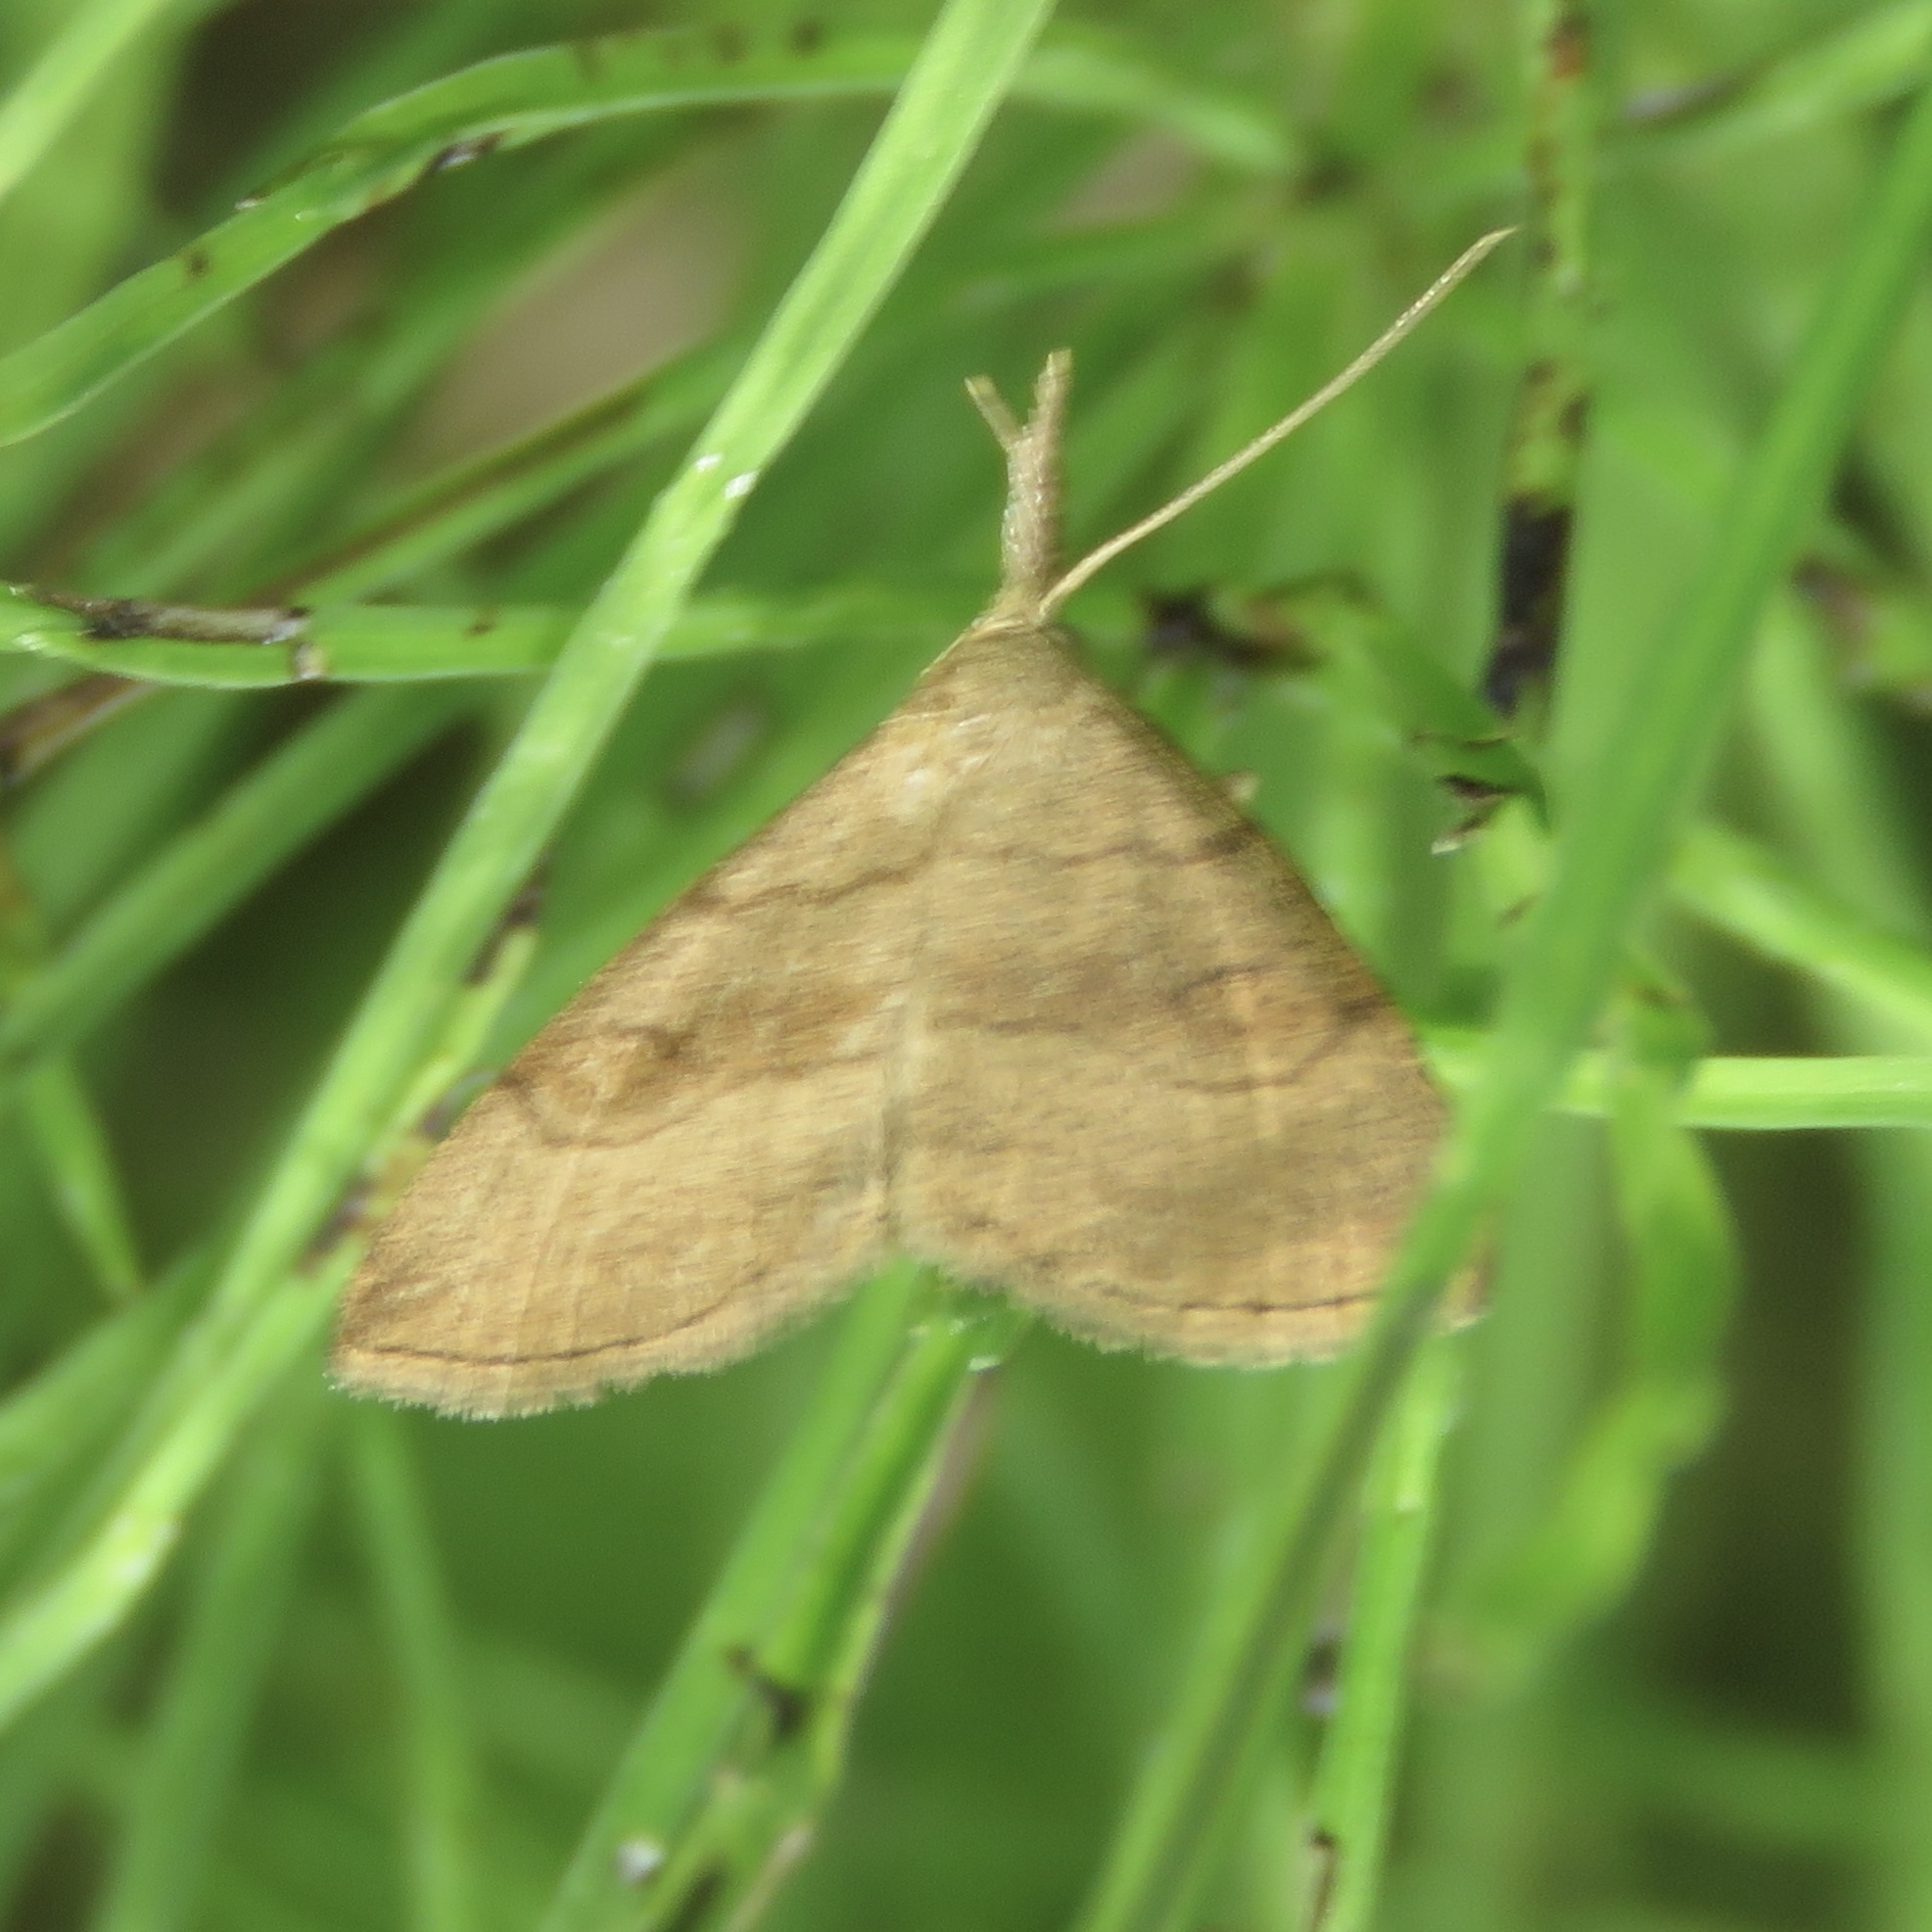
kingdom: Animalia
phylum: Arthropoda
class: Insecta
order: Lepidoptera
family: Erebidae
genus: Phalaenostola
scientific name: Phalaenostola metonalis
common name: Pale phalaenostola moth
